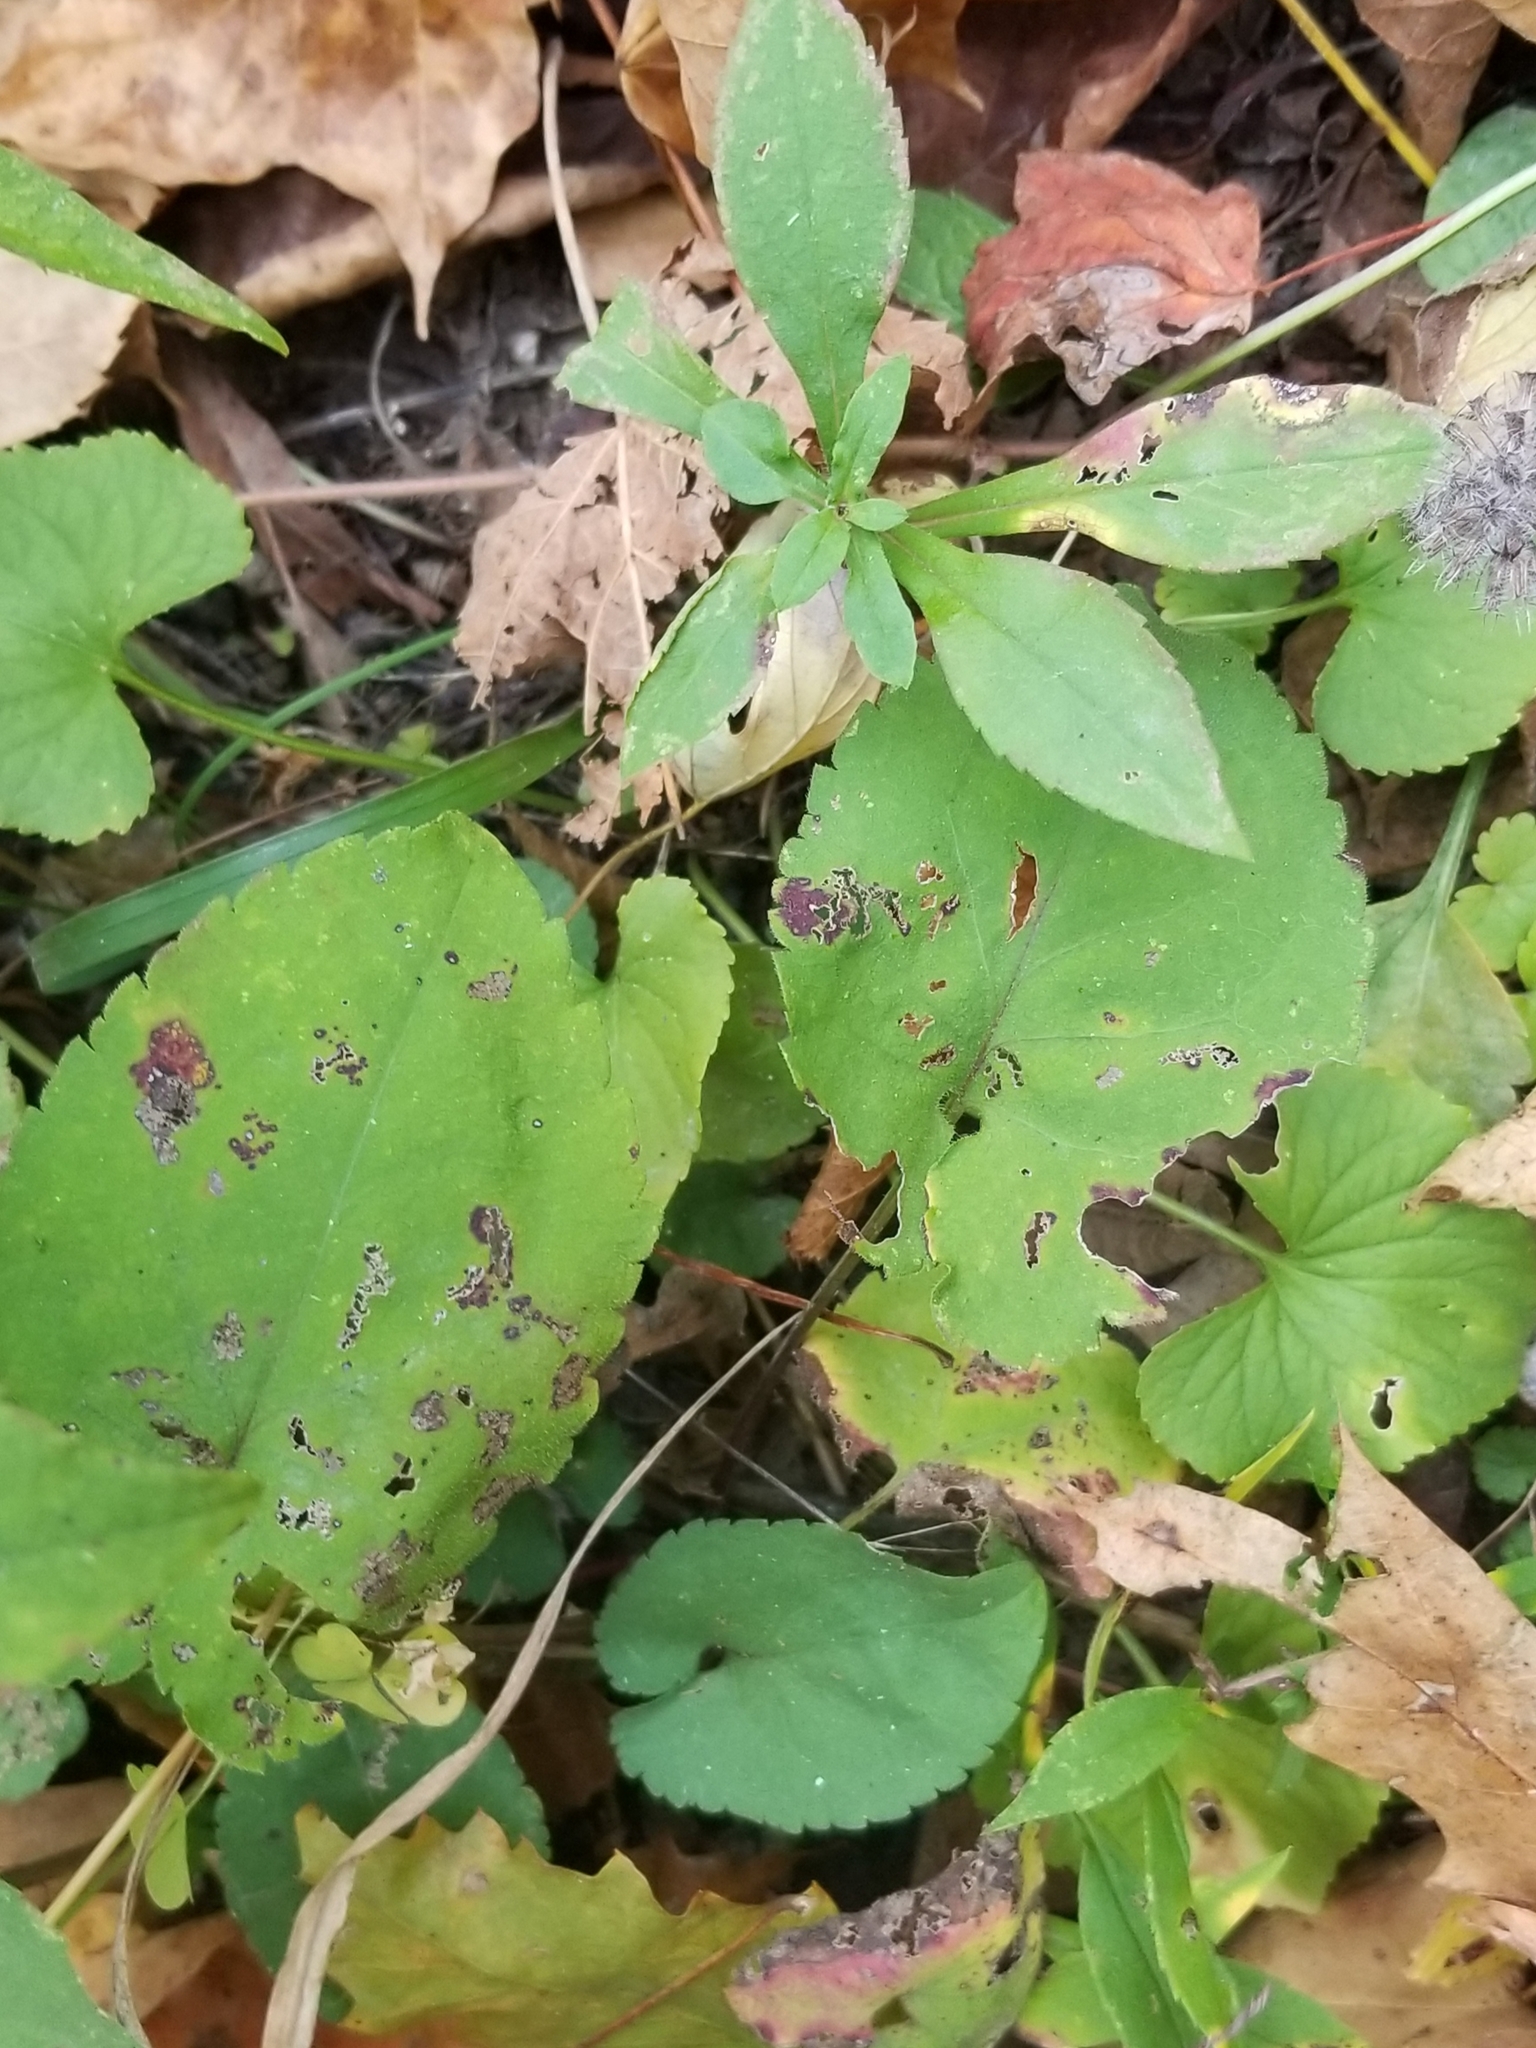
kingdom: Plantae
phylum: Tracheophyta
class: Magnoliopsida
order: Asterales
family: Asteraceae
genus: Symphyotrichum
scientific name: Symphyotrichum cordifolium
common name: Beeweed
